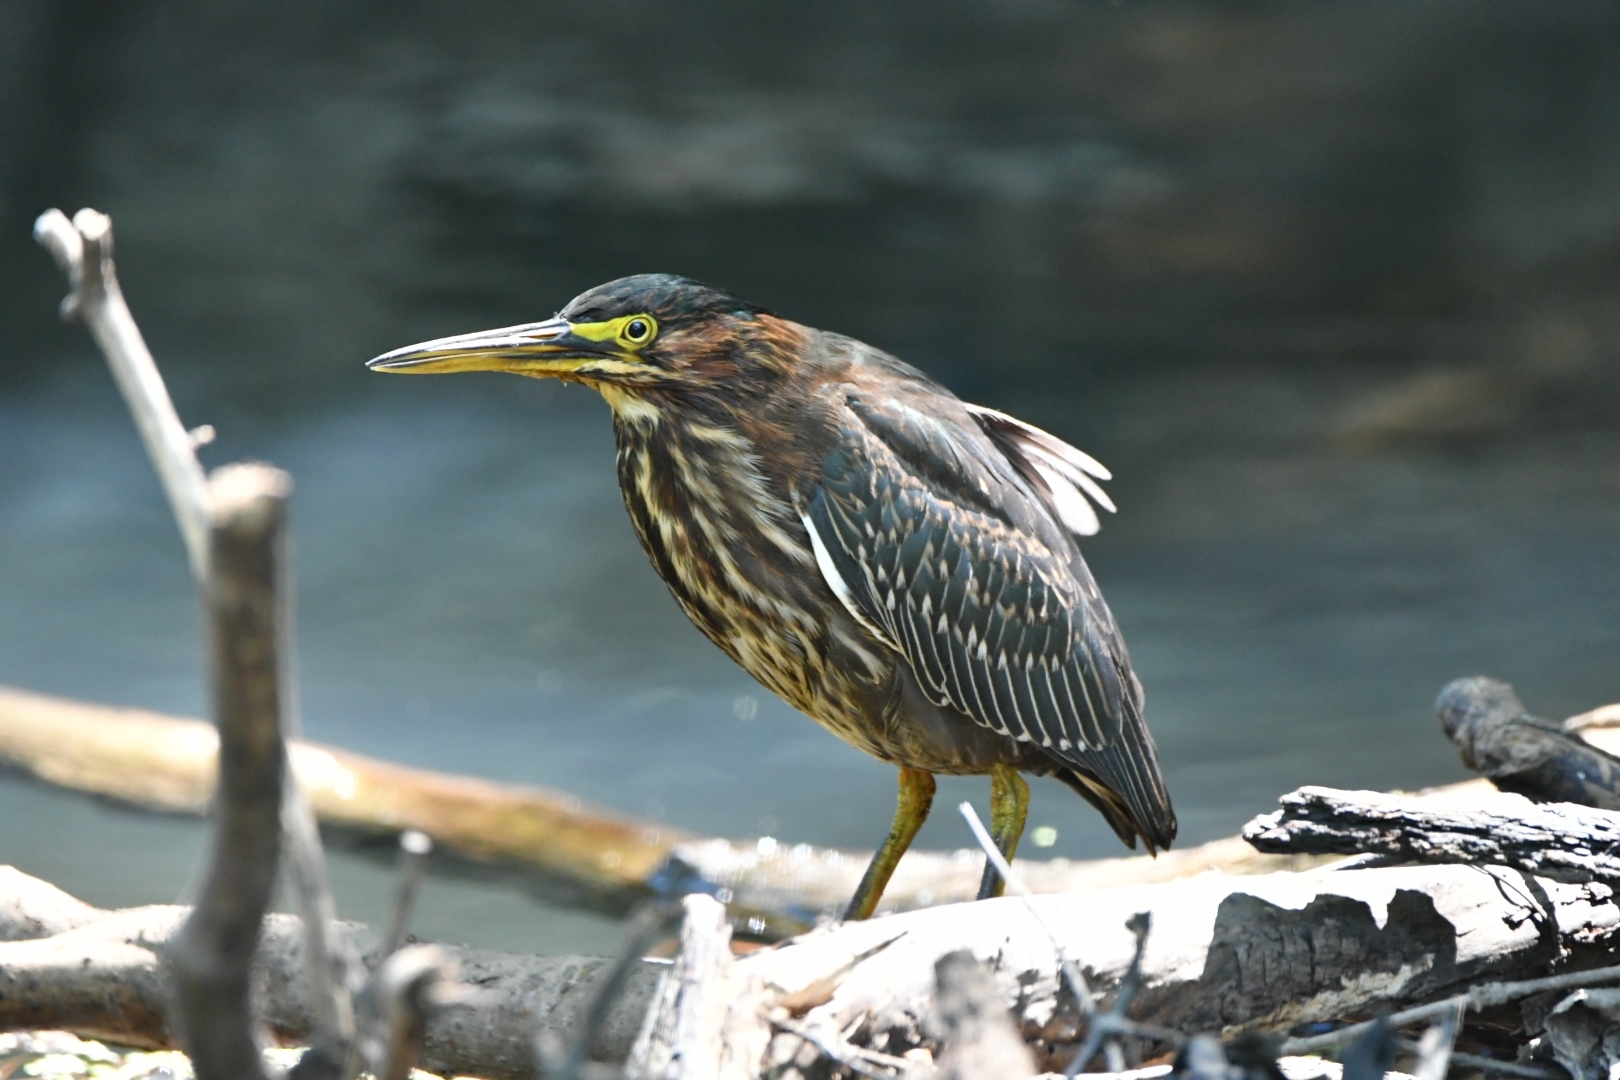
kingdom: Animalia
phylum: Chordata
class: Aves
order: Pelecaniformes
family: Ardeidae
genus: Butorides
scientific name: Butorides virescens
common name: Green heron
